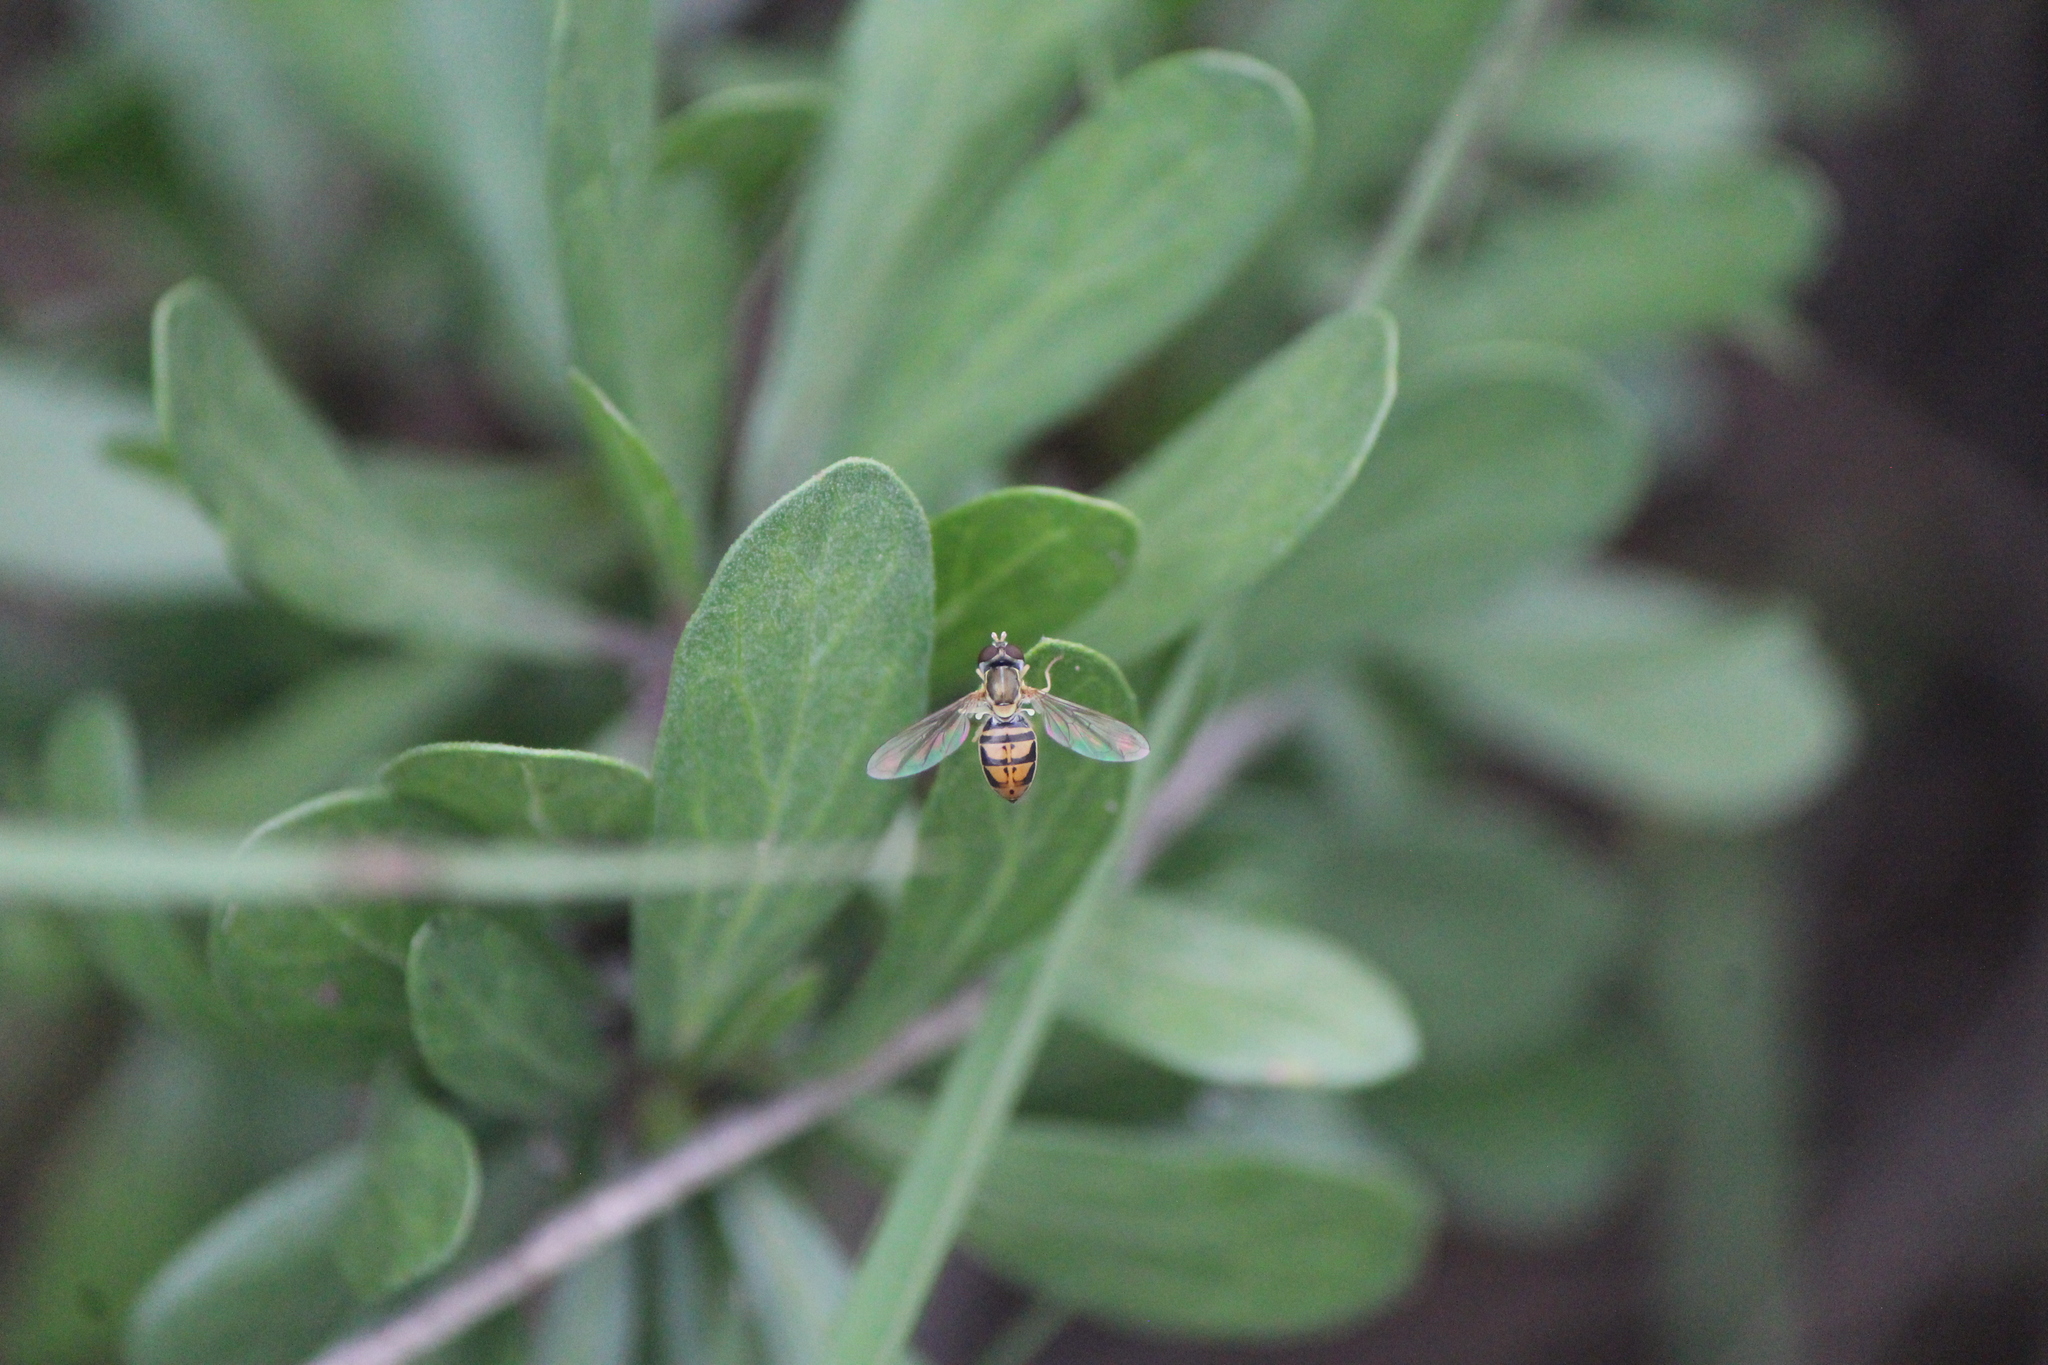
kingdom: Animalia
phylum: Arthropoda
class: Insecta
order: Diptera
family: Syrphidae
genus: Toxomerus
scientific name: Toxomerus marginatus
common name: Syrphid fly
